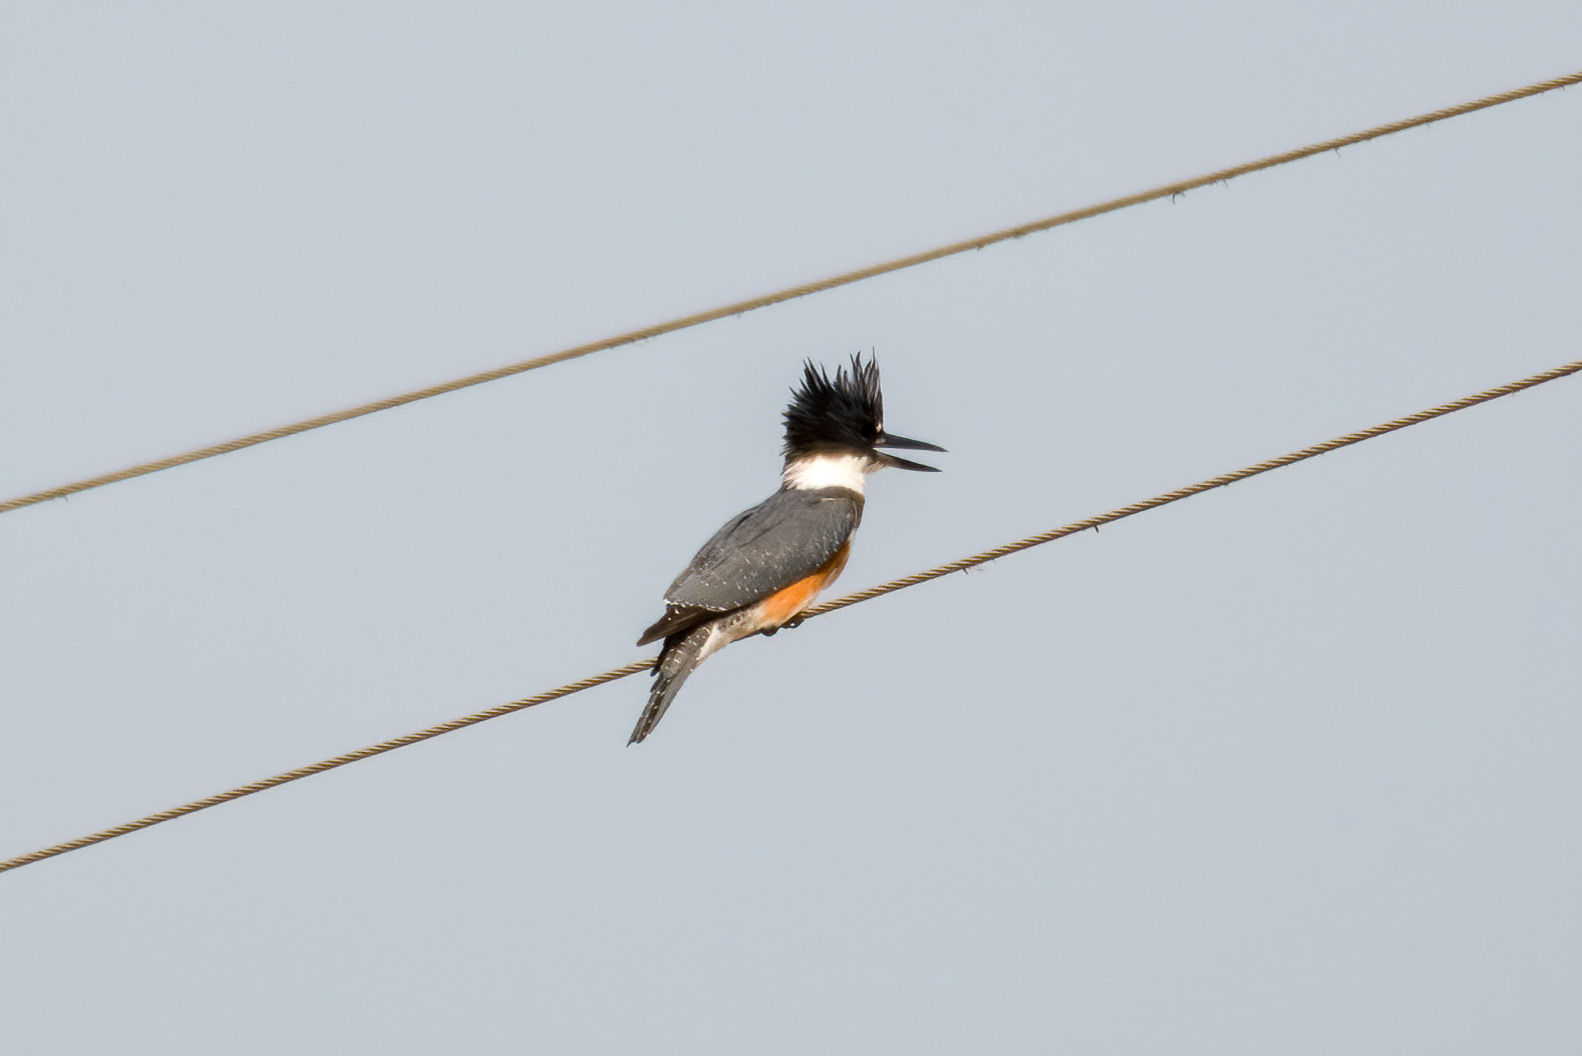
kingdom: Animalia
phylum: Chordata
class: Aves
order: Coraciiformes
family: Alcedinidae
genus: Megaceryle
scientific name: Megaceryle alcyon
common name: Belted kingfisher
